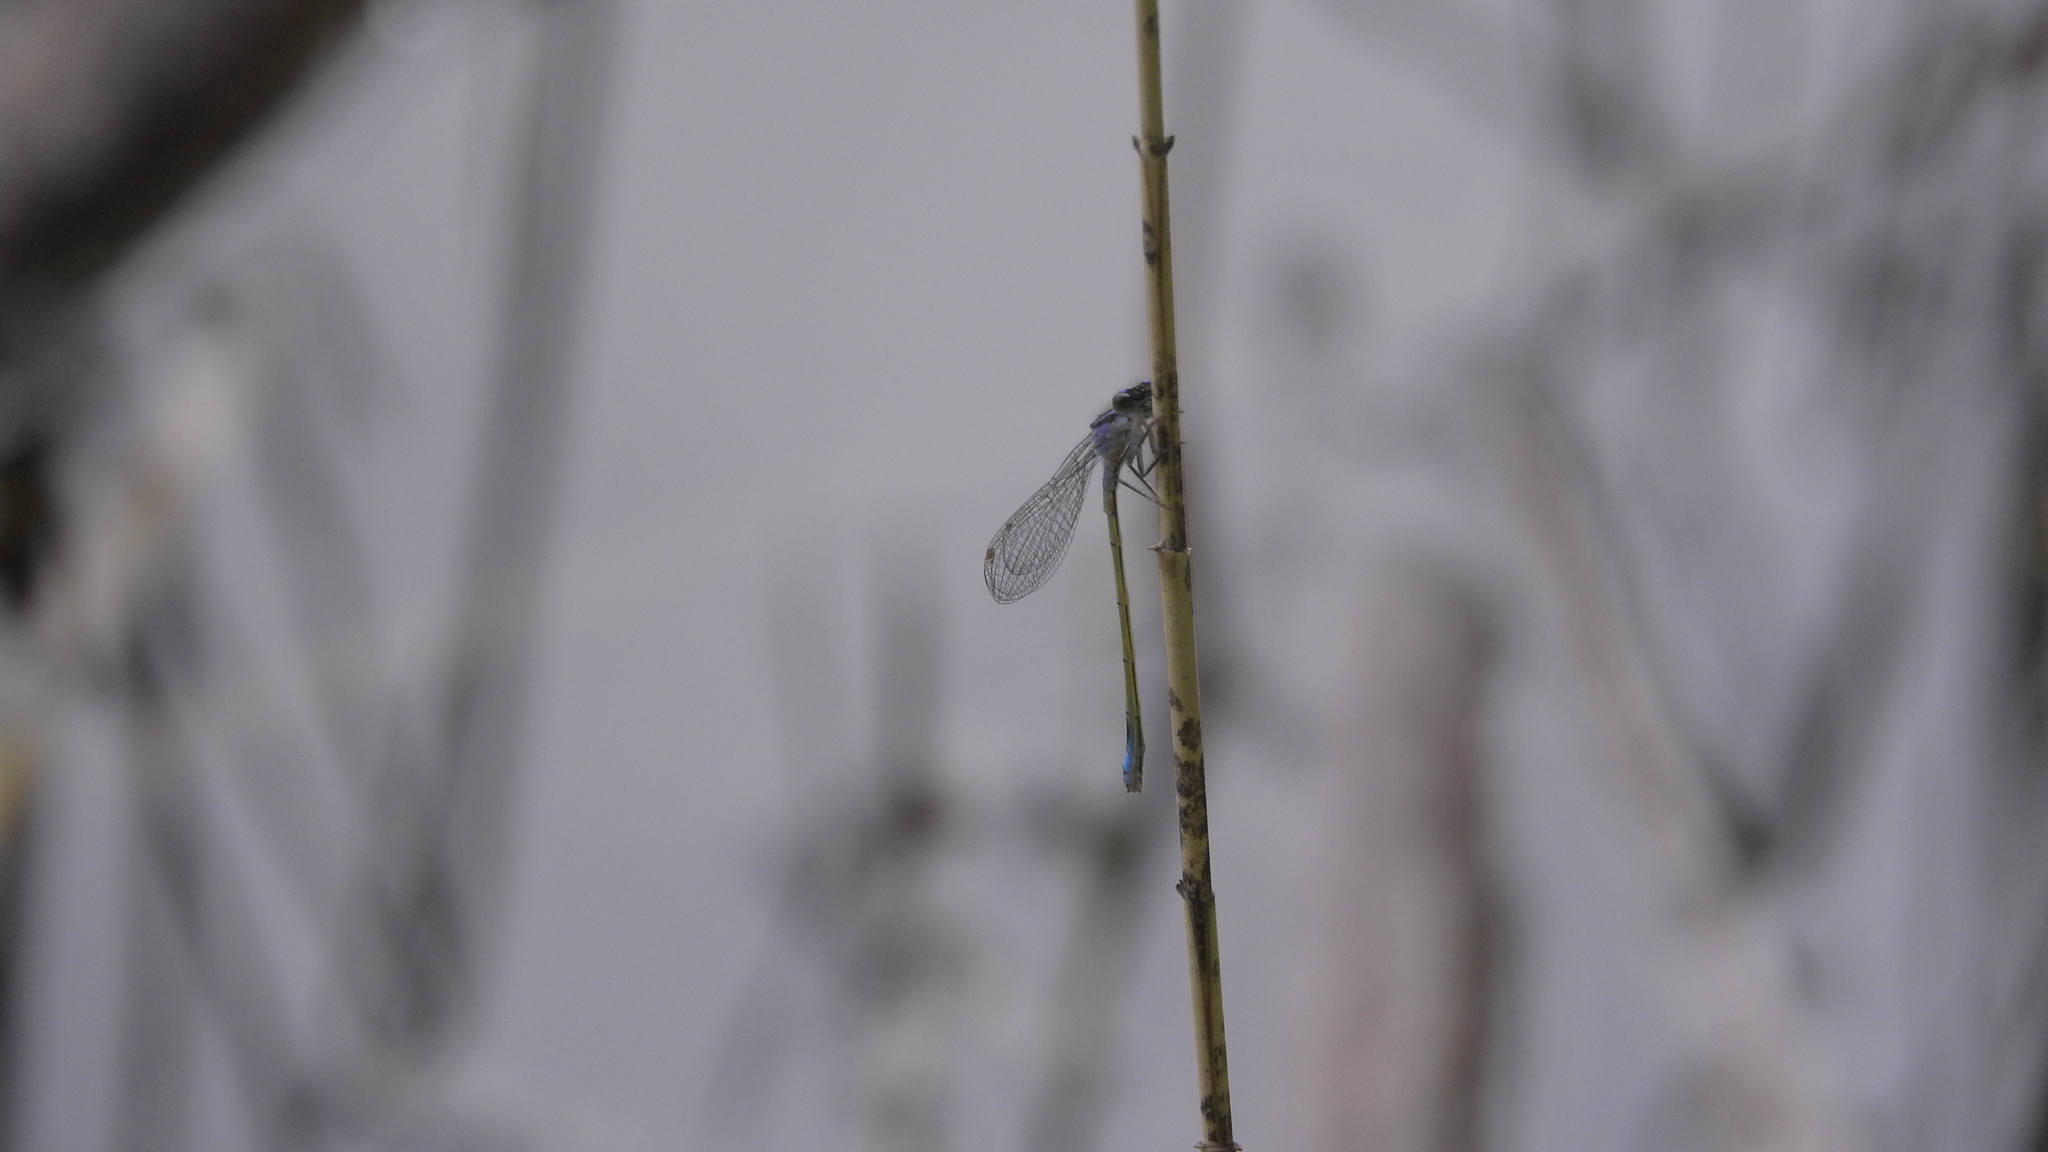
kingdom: Animalia
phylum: Arthropoda
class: Insecta
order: Odonata
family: Coenagrionidae
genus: Ischnura
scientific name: Ischnura elegans
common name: Blue-tailed damselfly
